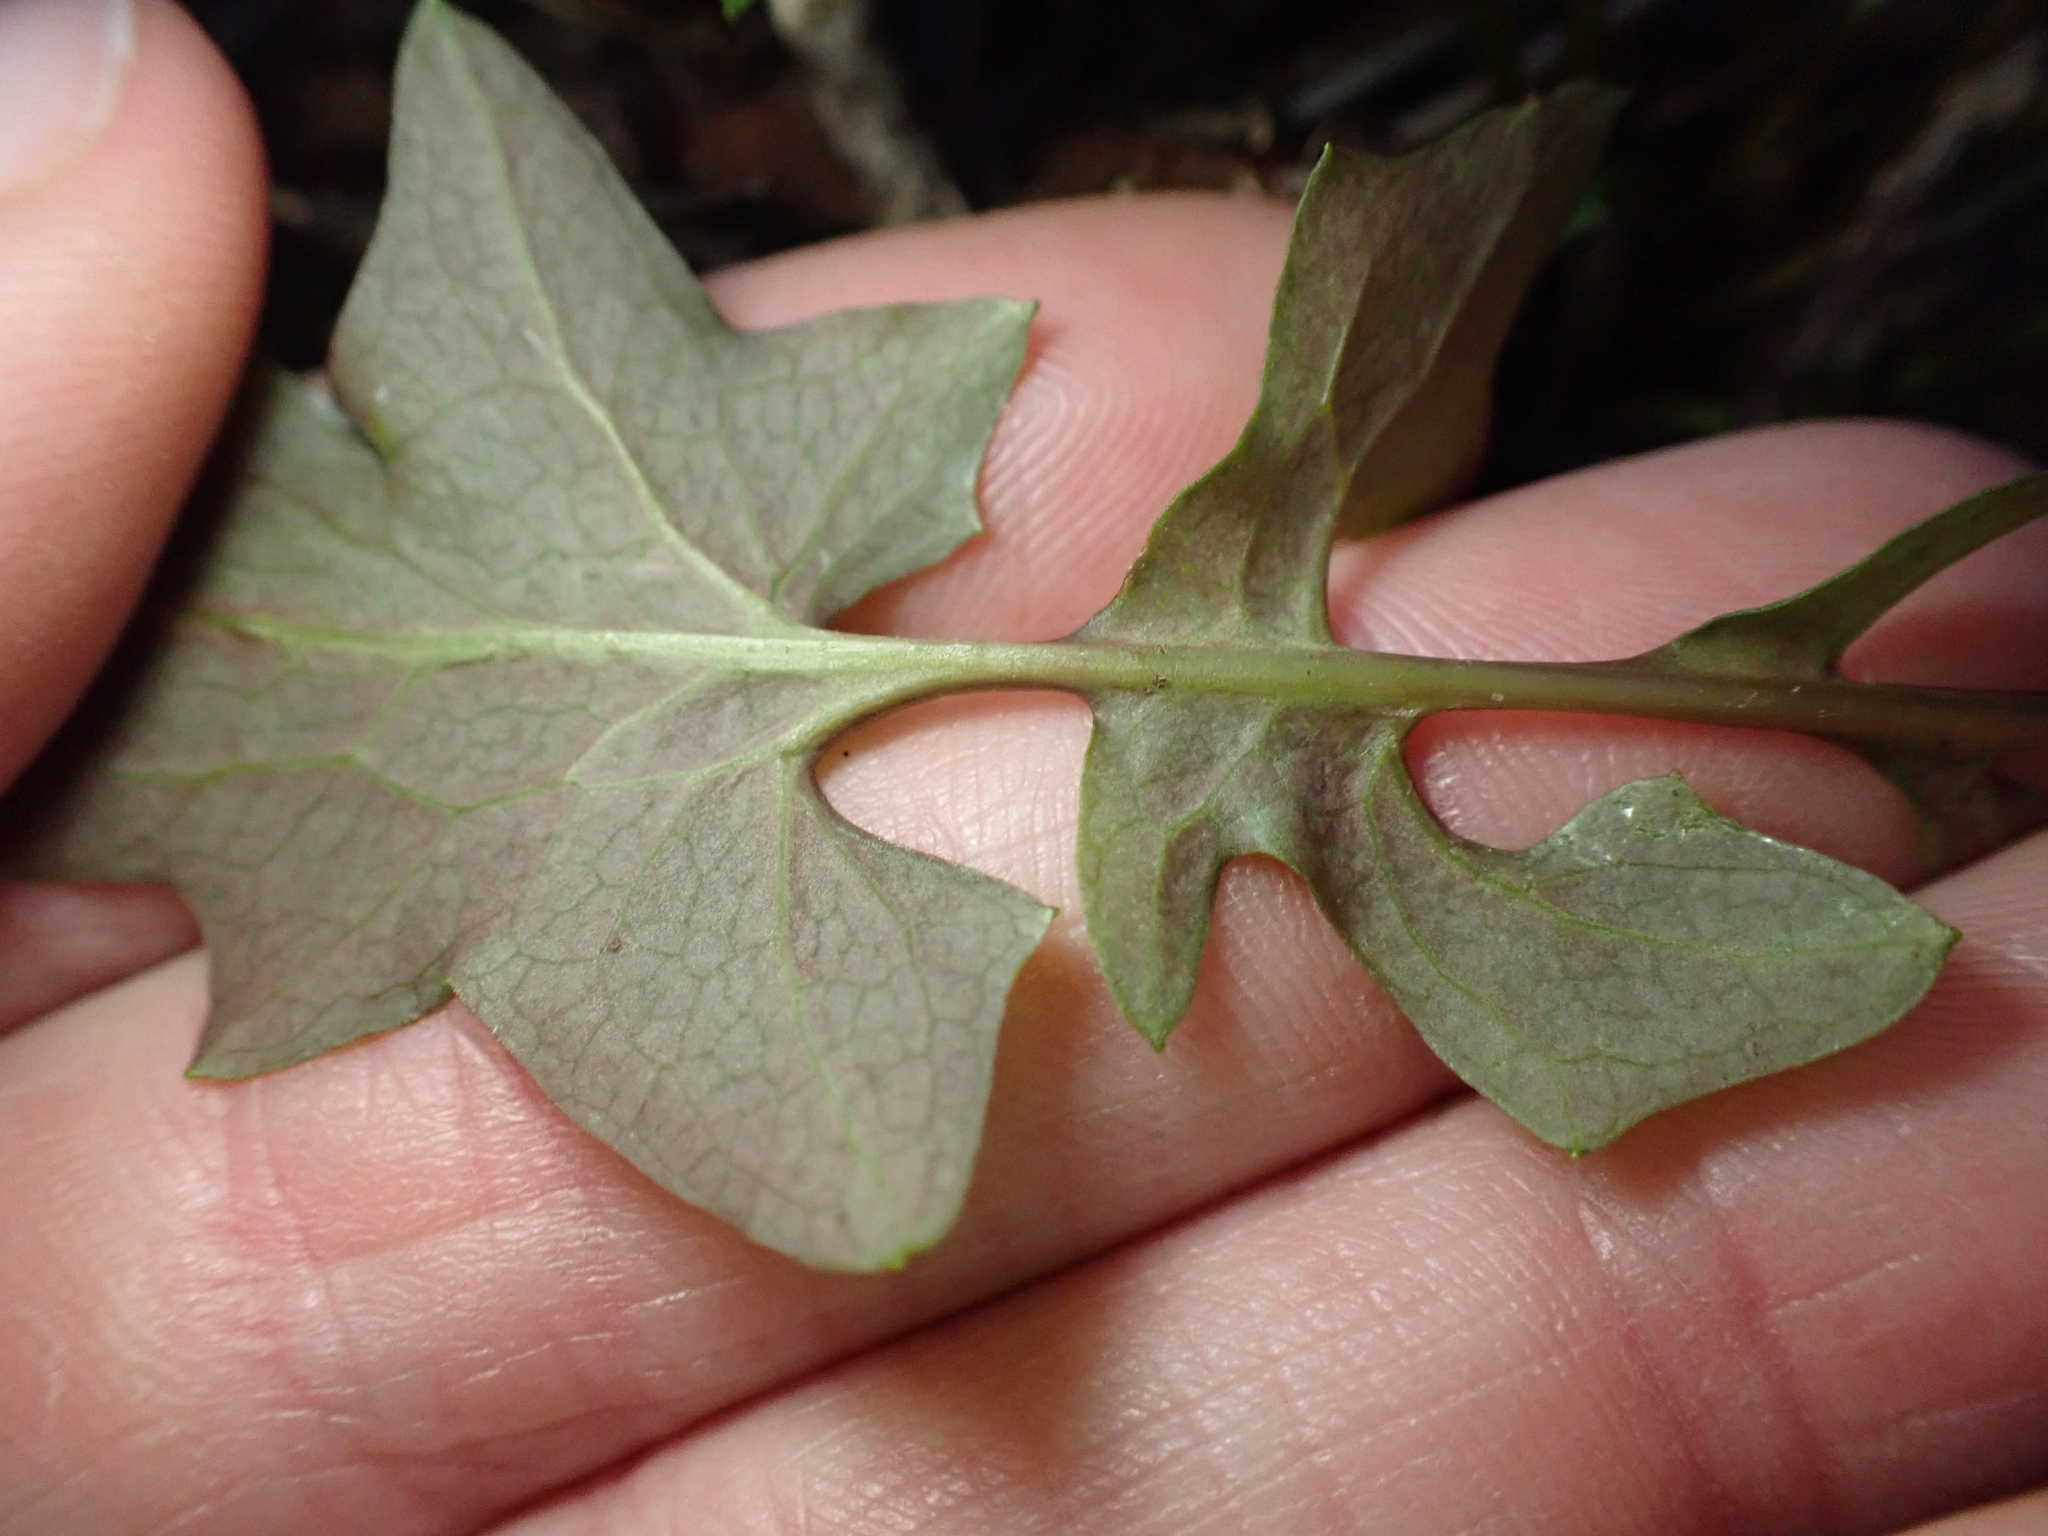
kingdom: Plantae
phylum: Tracheophyta
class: Magnoliopsida
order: Asterales
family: Asteraceae
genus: Mycelis
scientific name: Mycelis muralis
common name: Wall lettuce
